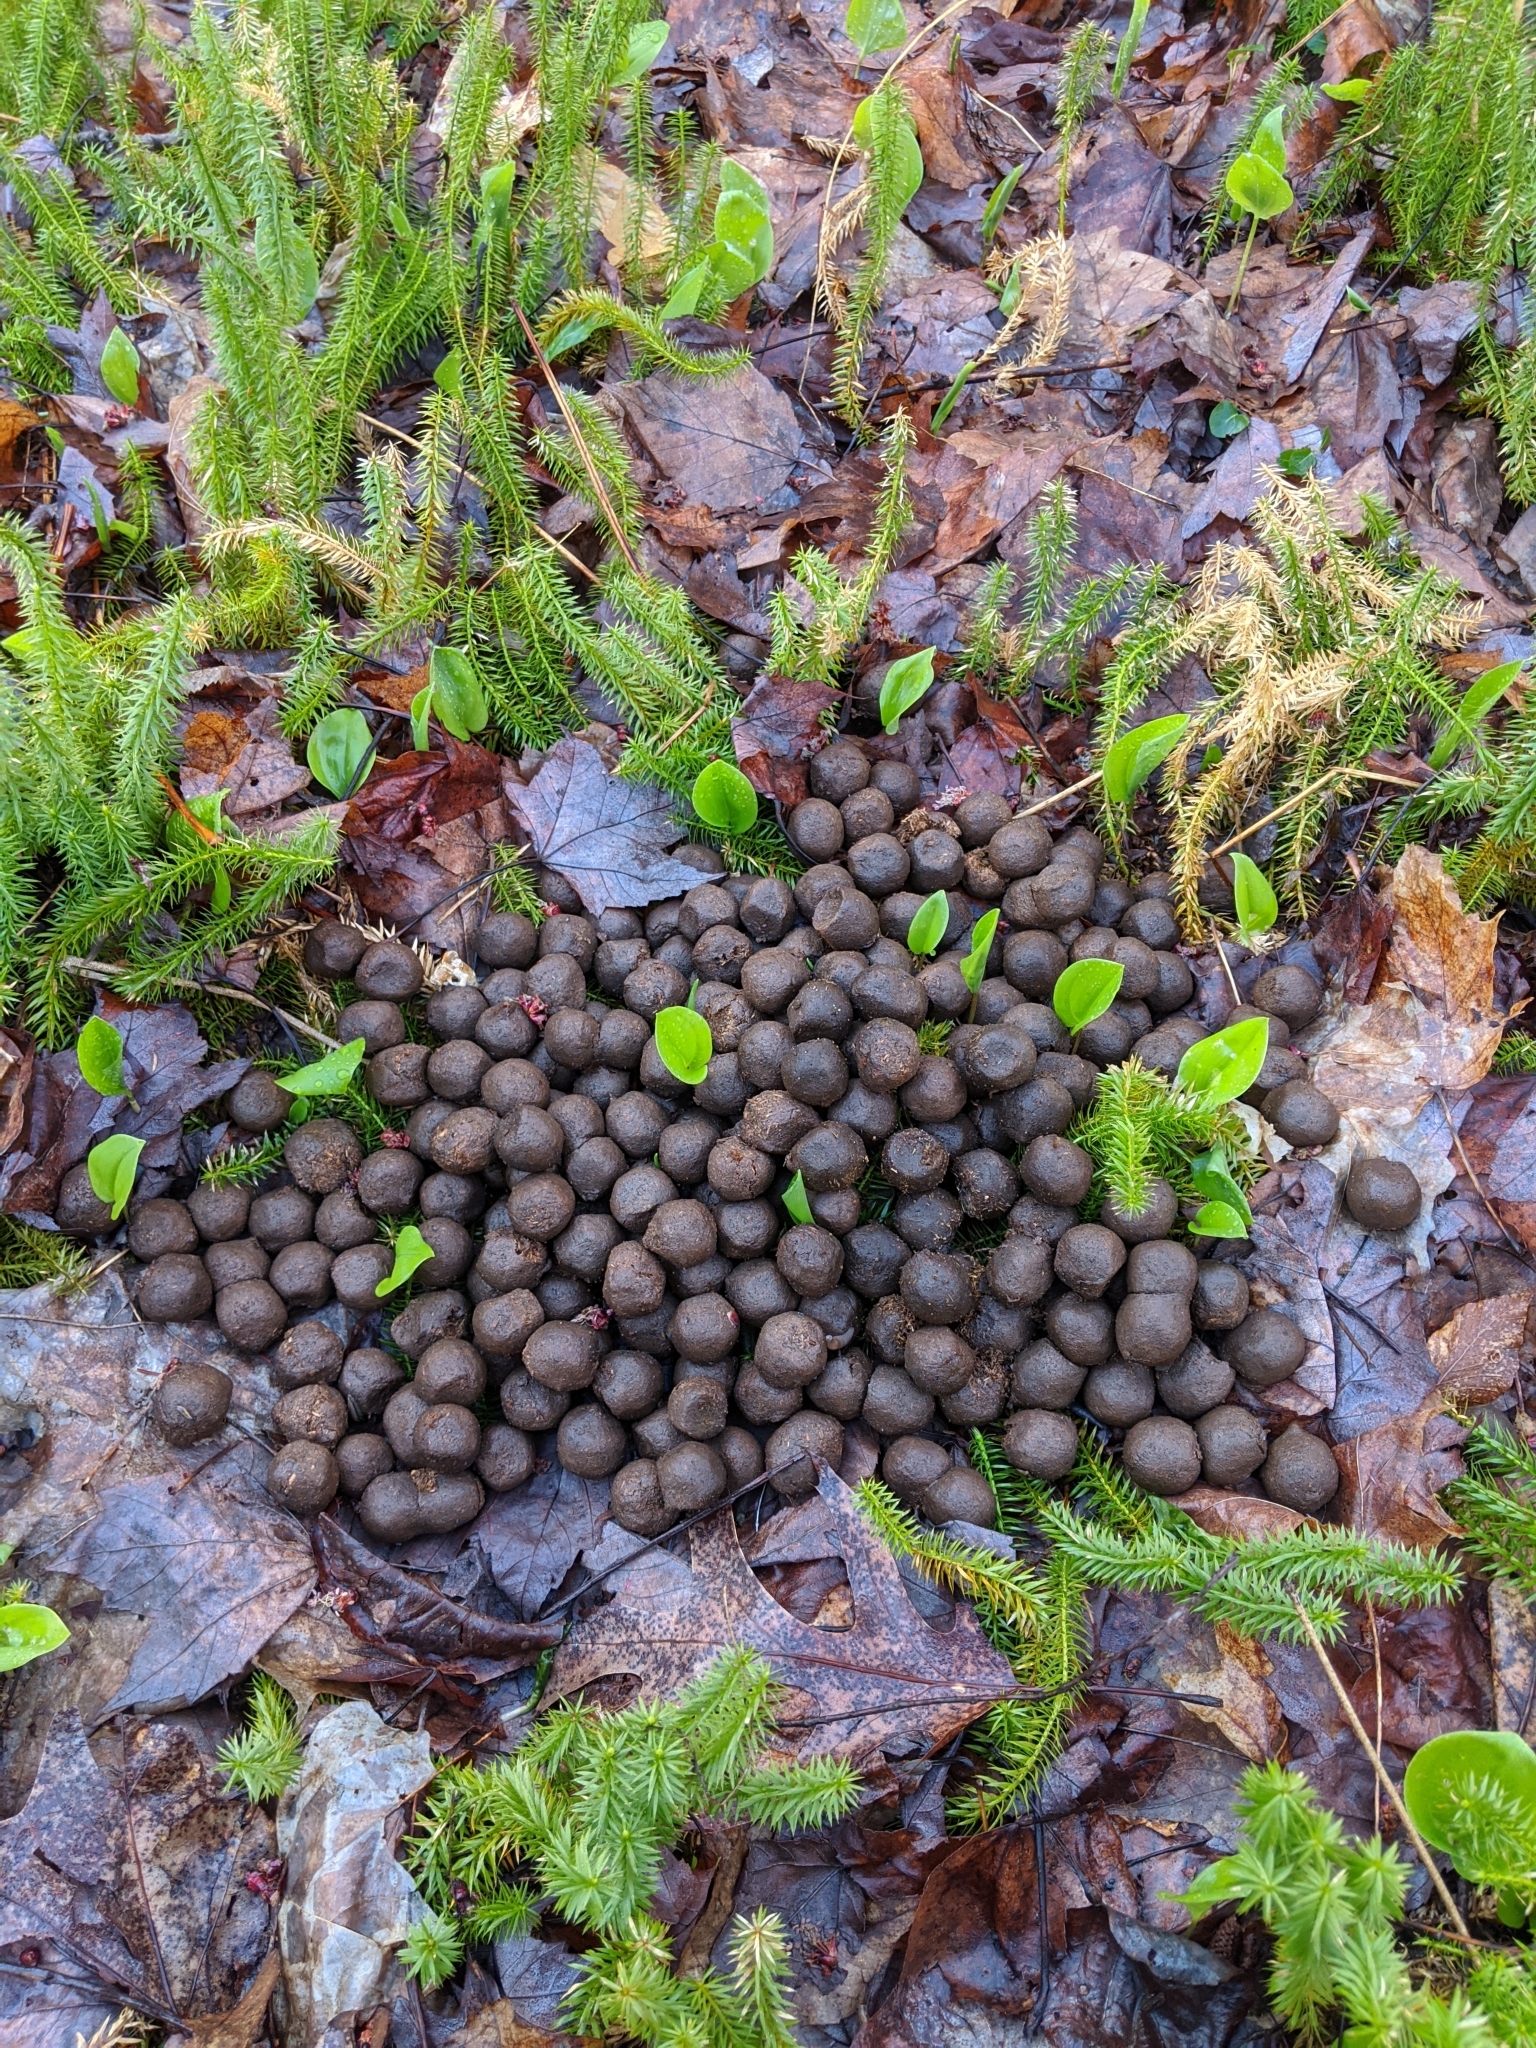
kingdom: Animalia
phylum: Chordata
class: Mammalia
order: Artiodactyla
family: Cervidae
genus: Alces
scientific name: Alces alces
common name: Moose
